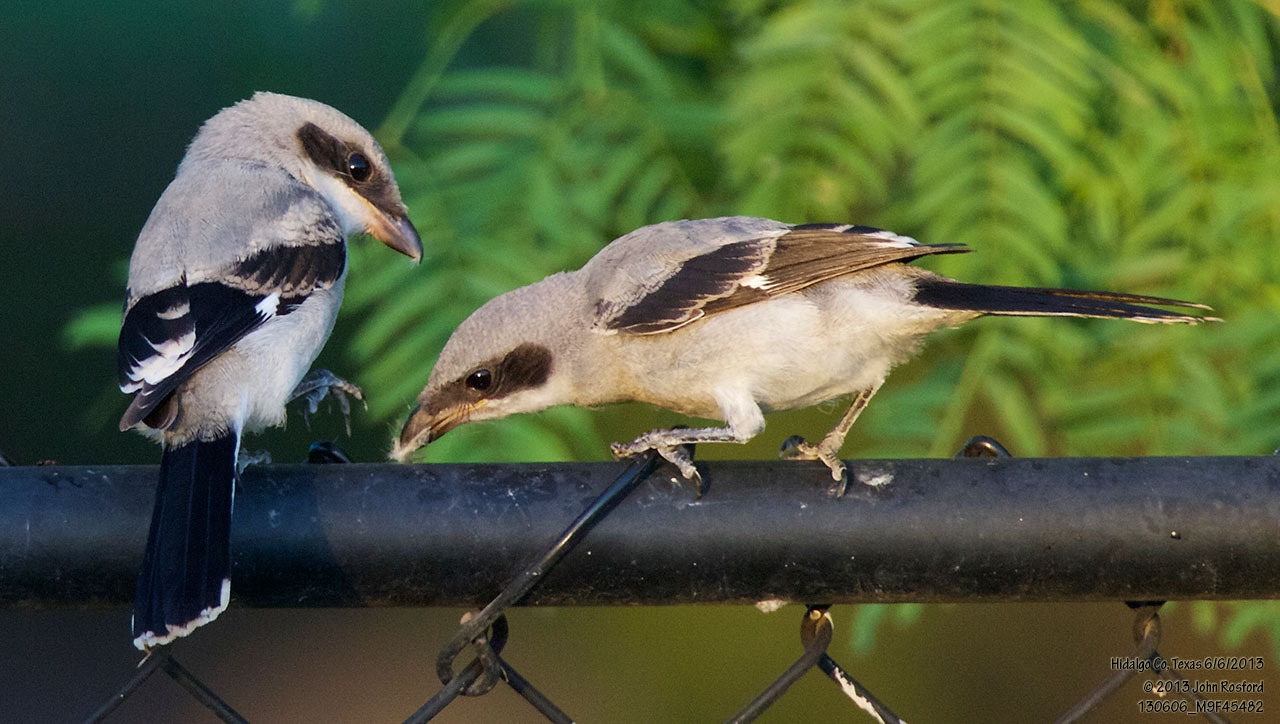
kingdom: Animalia
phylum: Chordata
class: Aves
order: Passeriformes
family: Laniidae
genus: Lanius
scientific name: Lanius ludovicianus
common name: Loggerhead shrike
